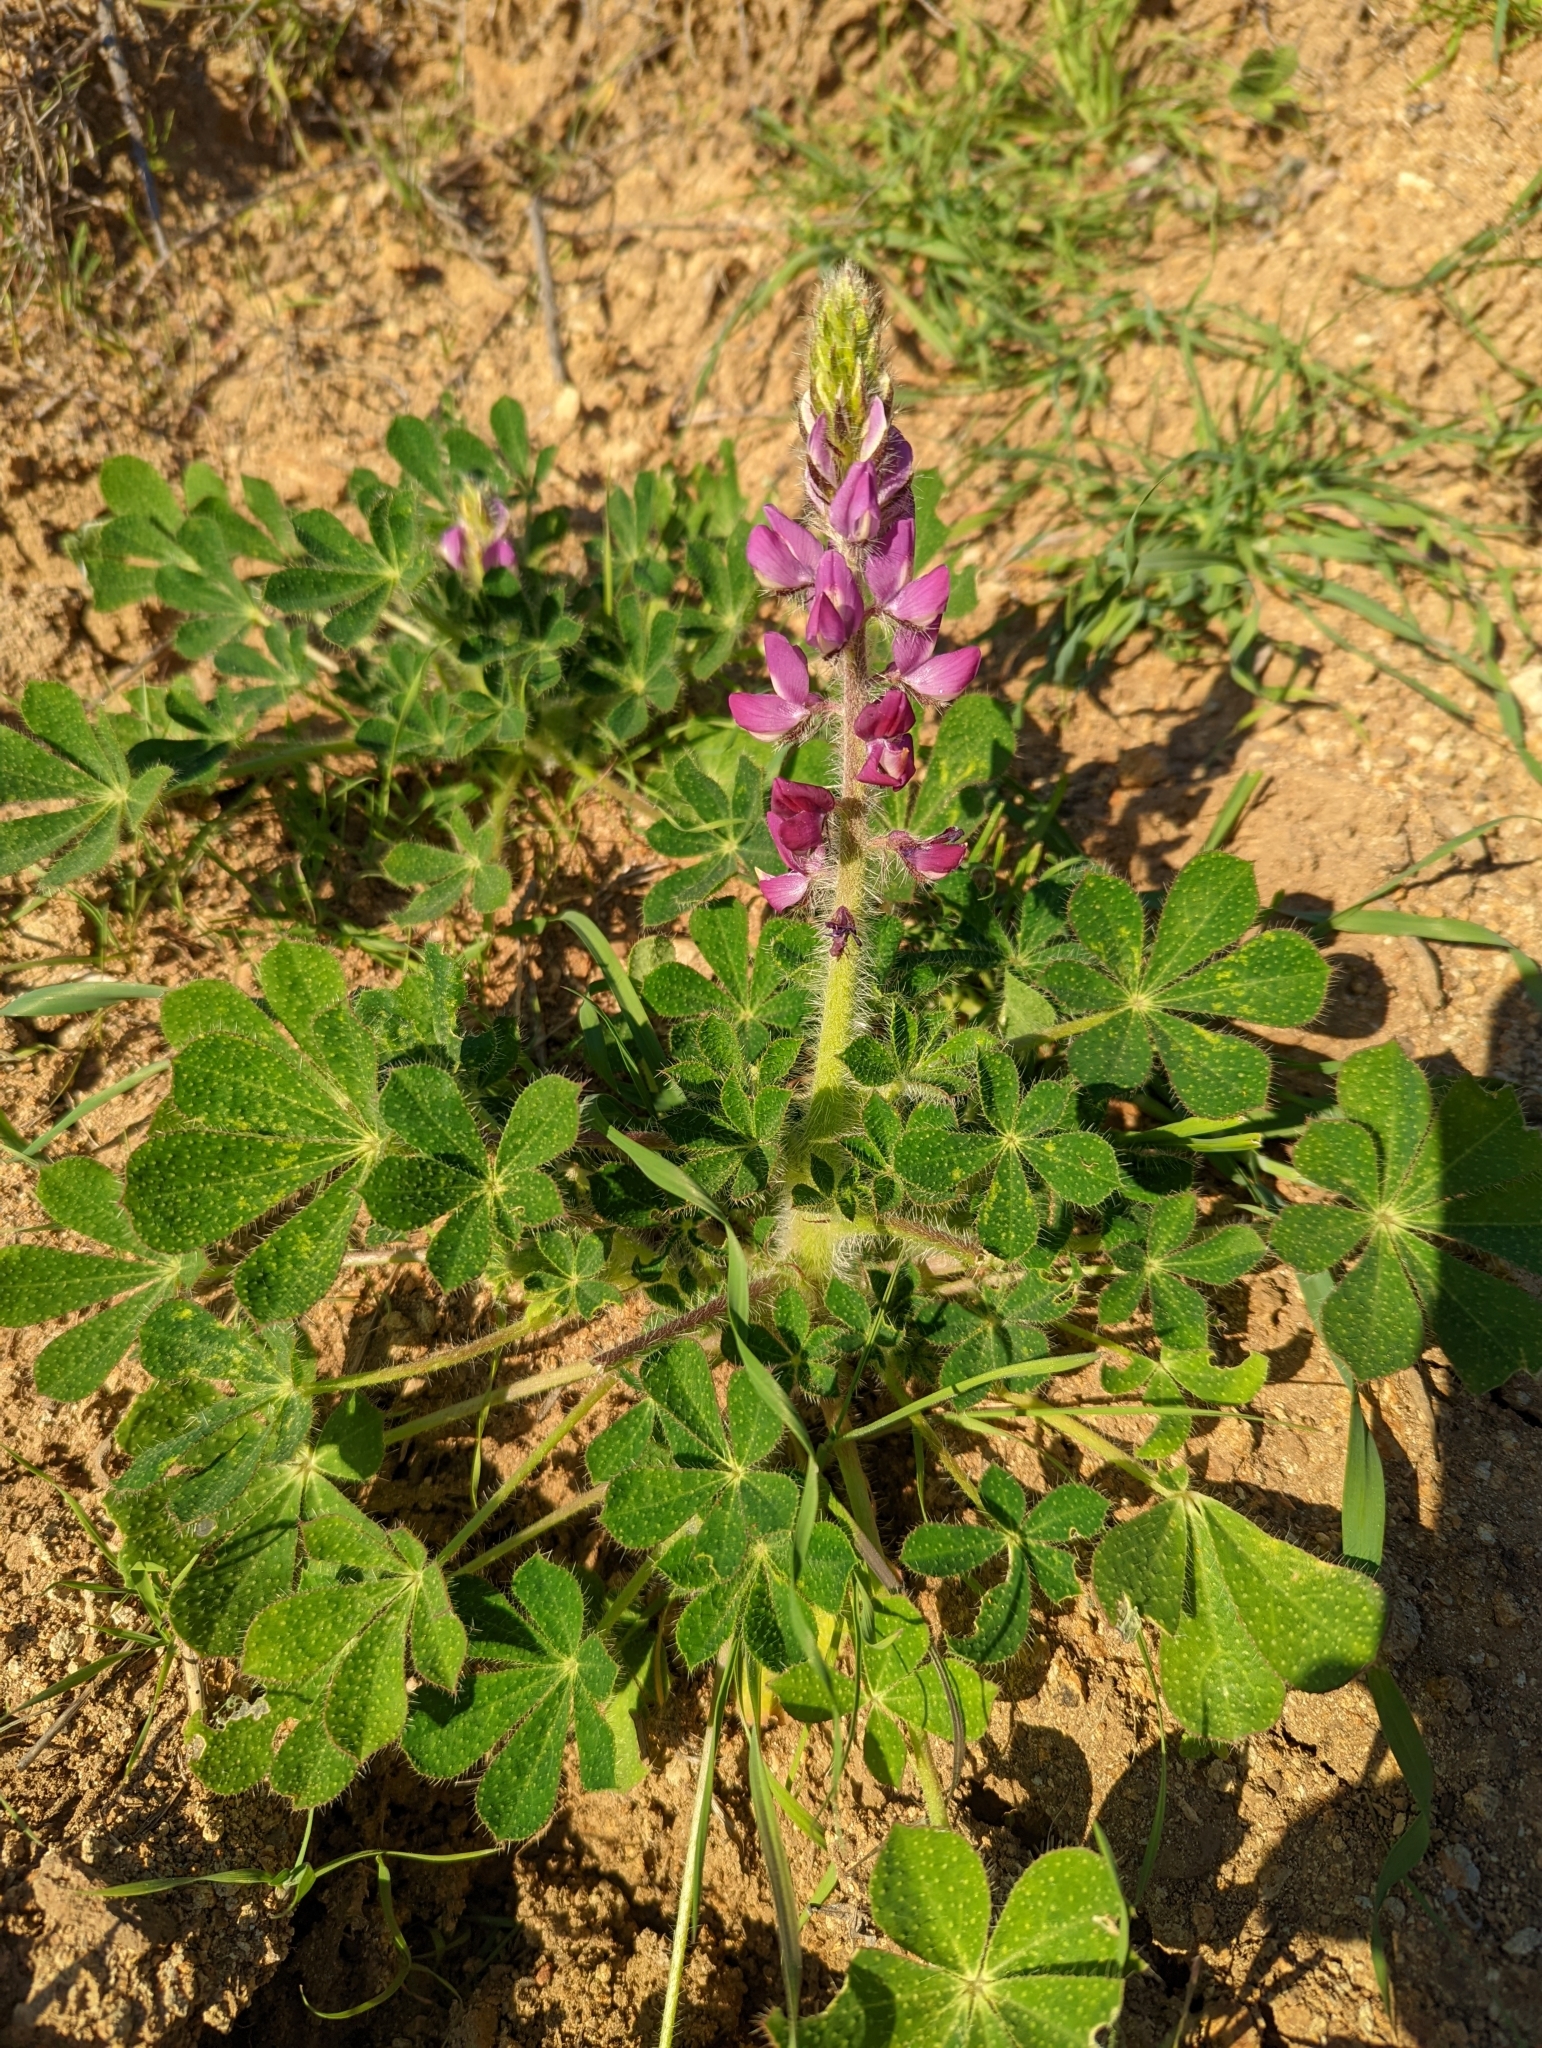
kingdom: Plantae
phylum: Tracheophyta
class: Magnoliopsida
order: Fabales
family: Fabaceae
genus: Lupinus
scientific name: Lupinus hirsutissimus
